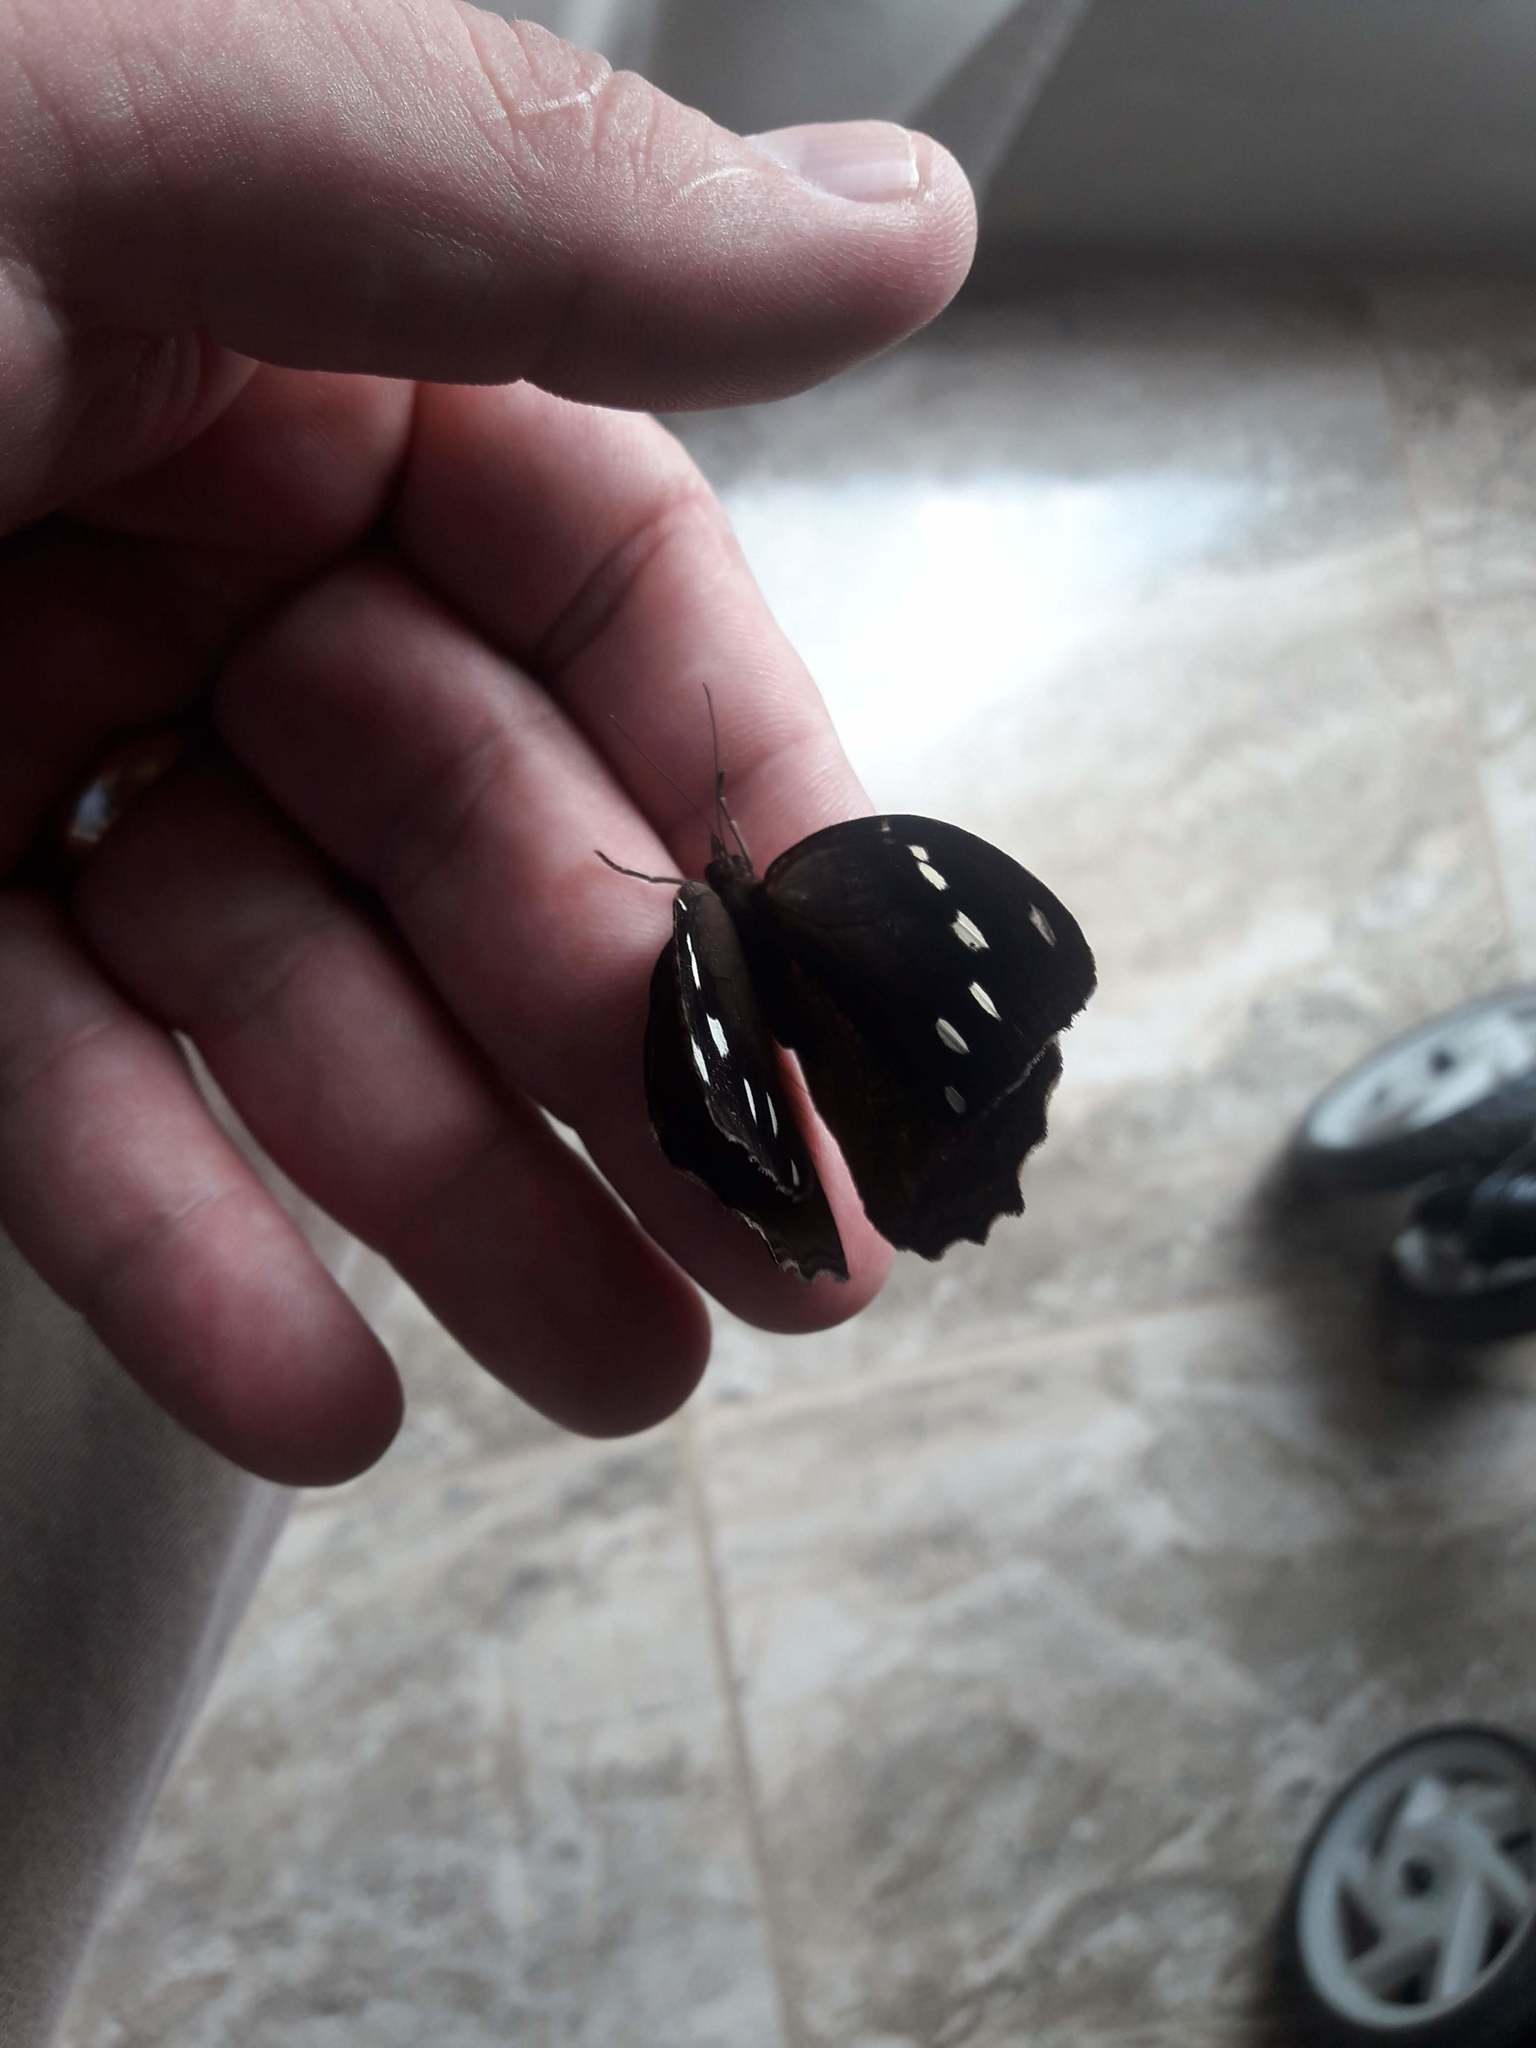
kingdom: Animalia
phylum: Arthropoda
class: Insecta
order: Lepidoptera
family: Nymphalidae
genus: Manataria
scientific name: Manataria maculata
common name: White-spotted satyr
